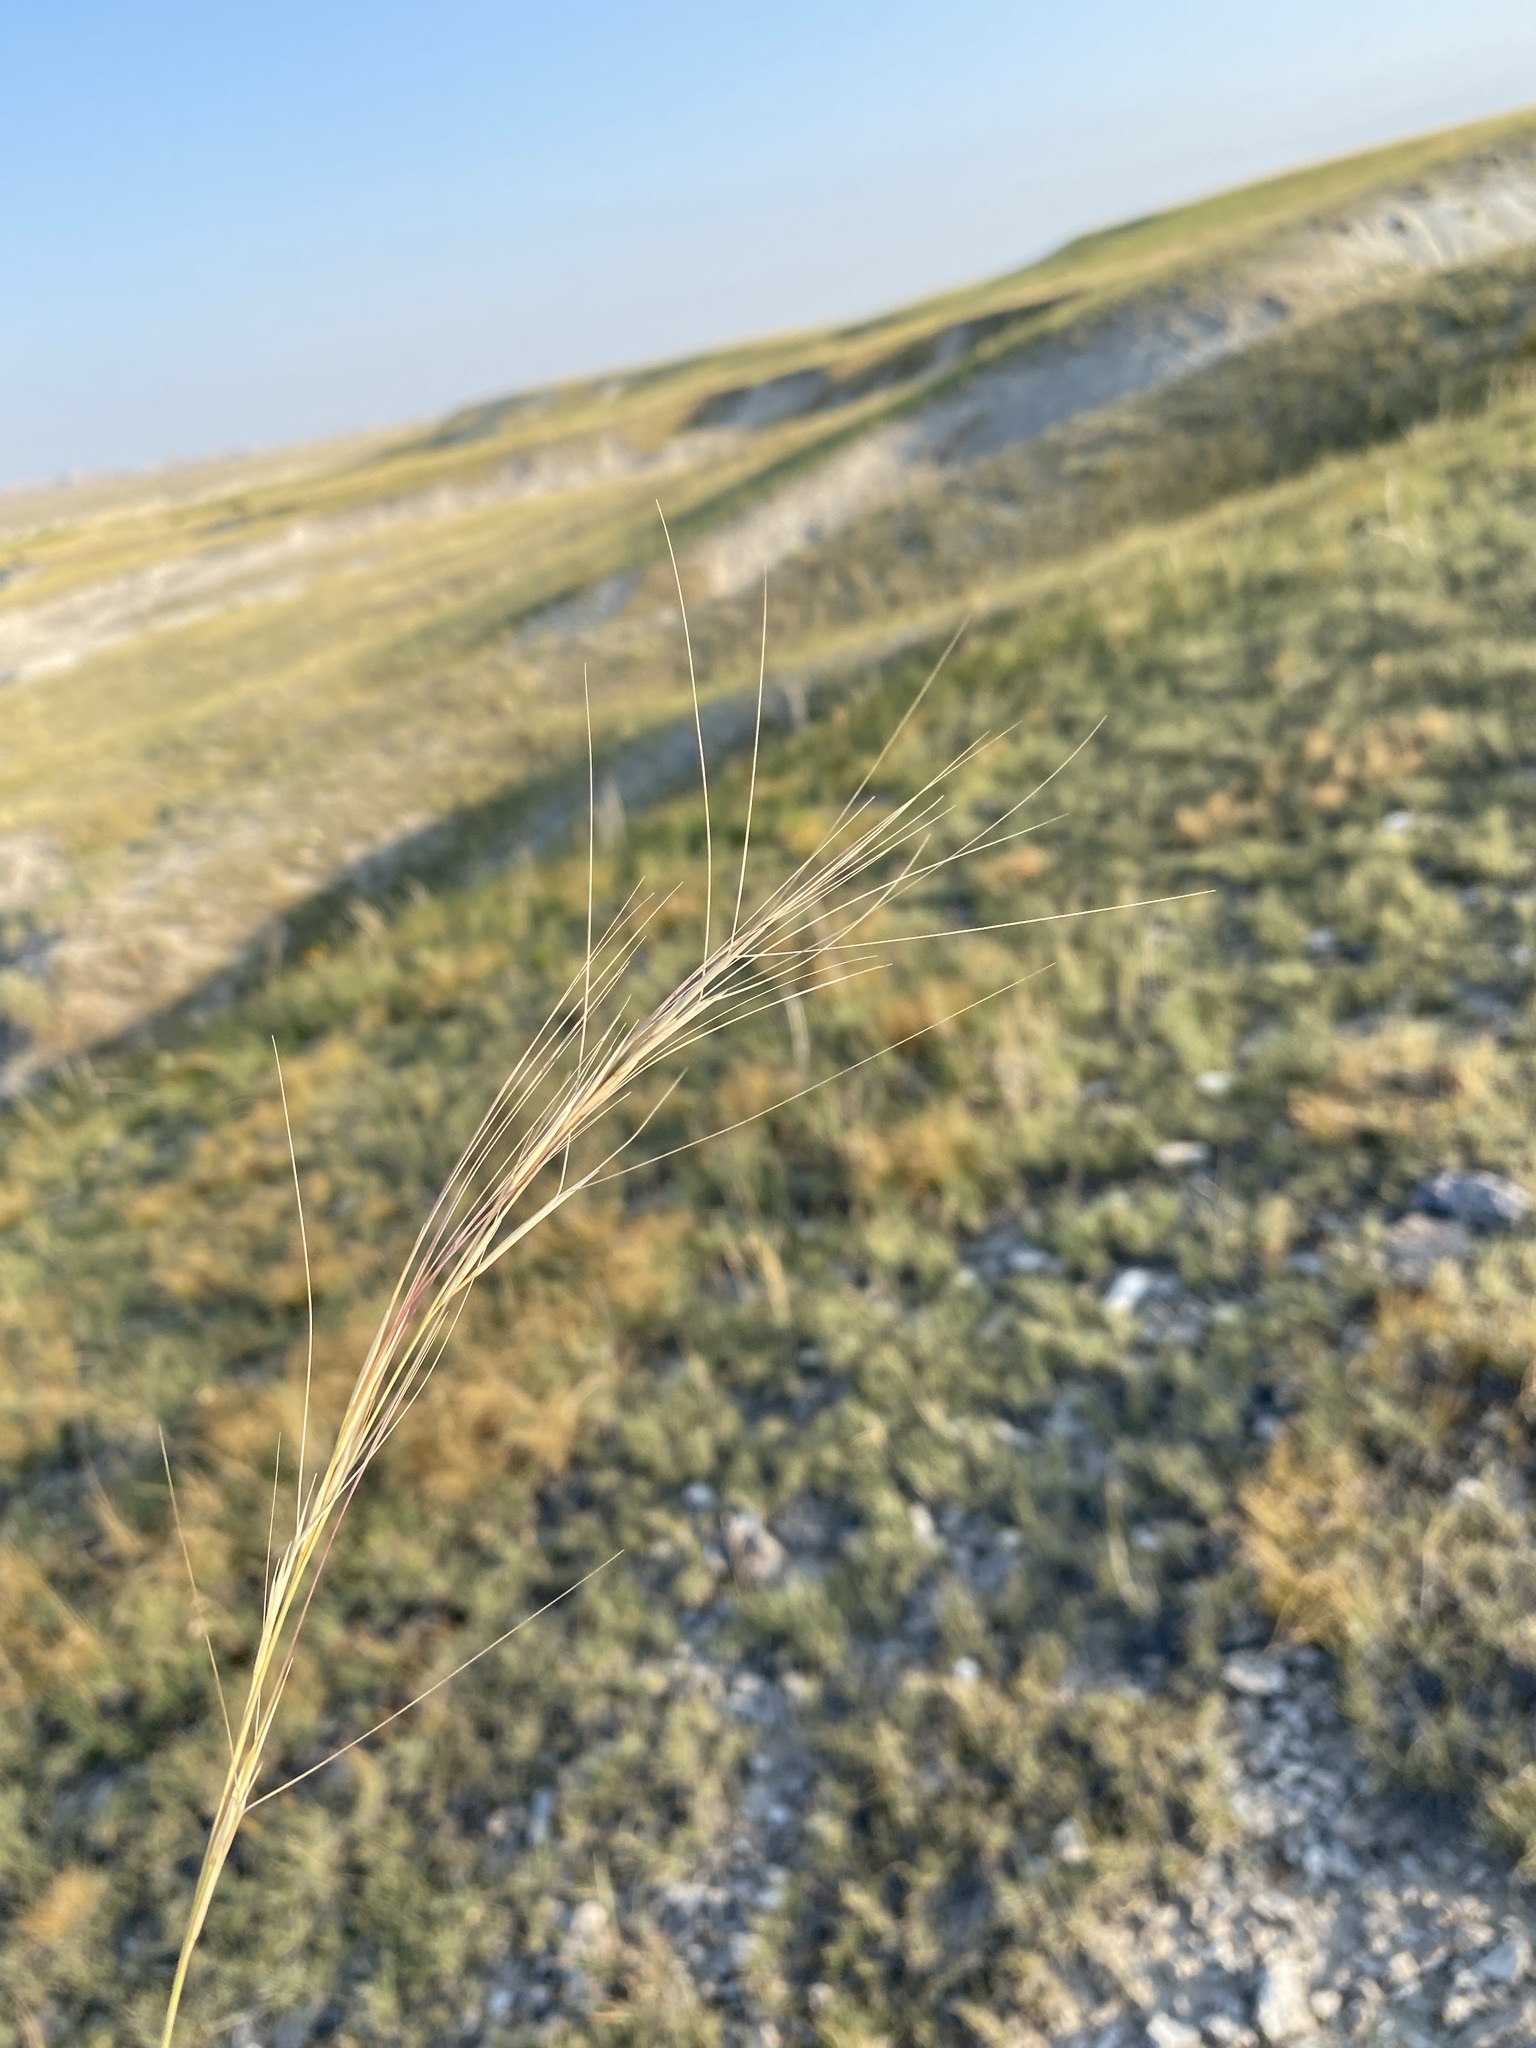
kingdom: Plantae
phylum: Tracheophyta
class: Liliopsida
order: Poales
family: Poaceae
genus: Aristida
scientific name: Aristida purpurea
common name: Purple threeawn
